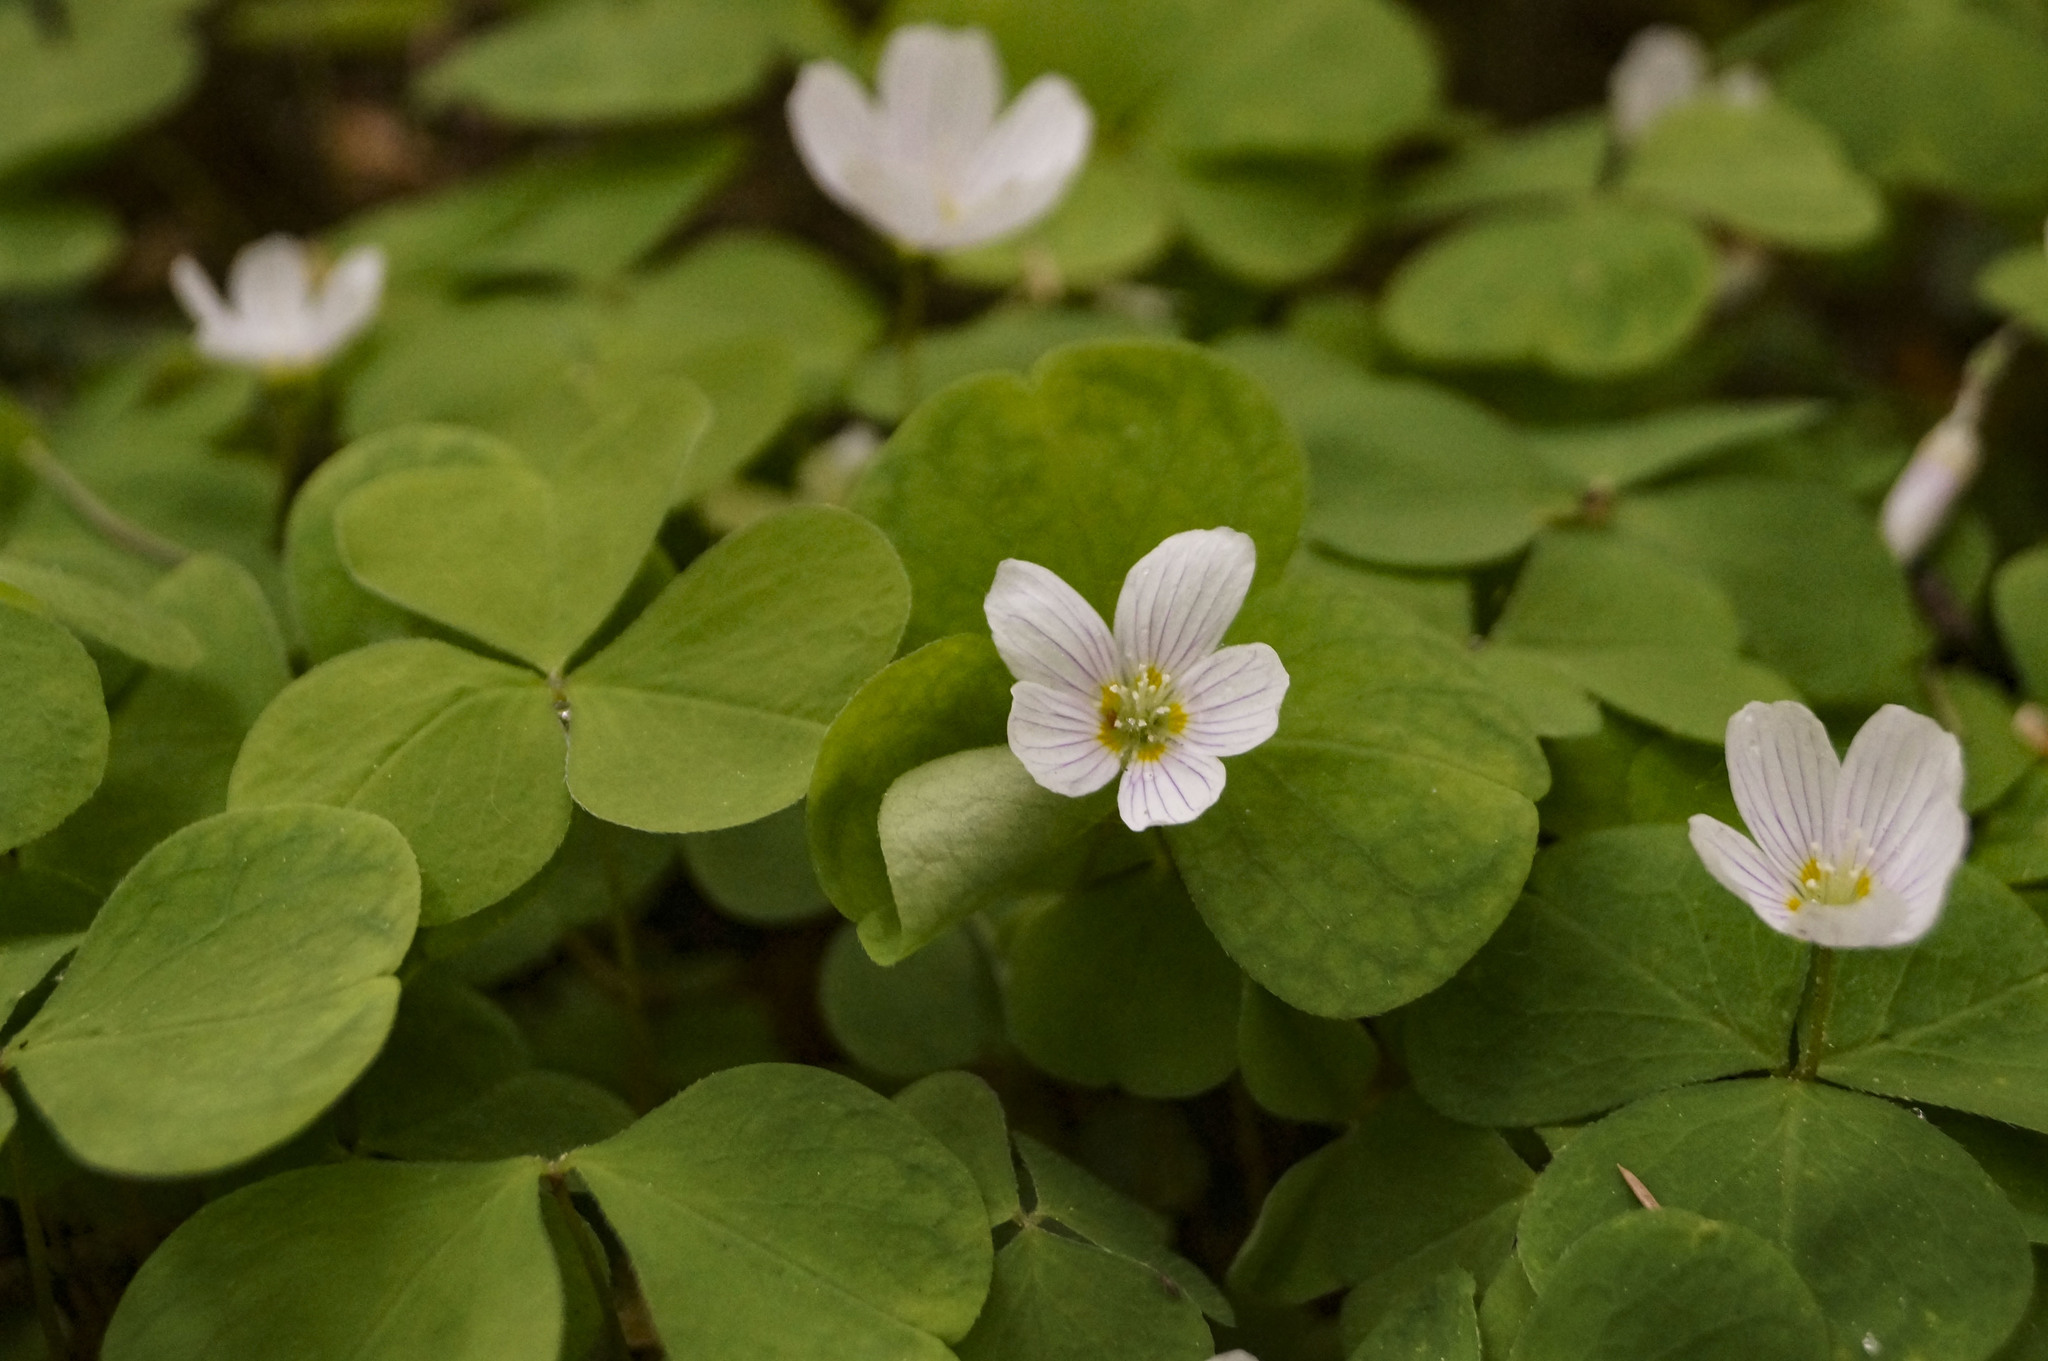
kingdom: Plantae
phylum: Tracheophyta
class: Magnoliopsida
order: Oxalidales
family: Oxalidaceae
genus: Oxalis
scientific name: Oxalis acetosella
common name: Wood-sorrel
